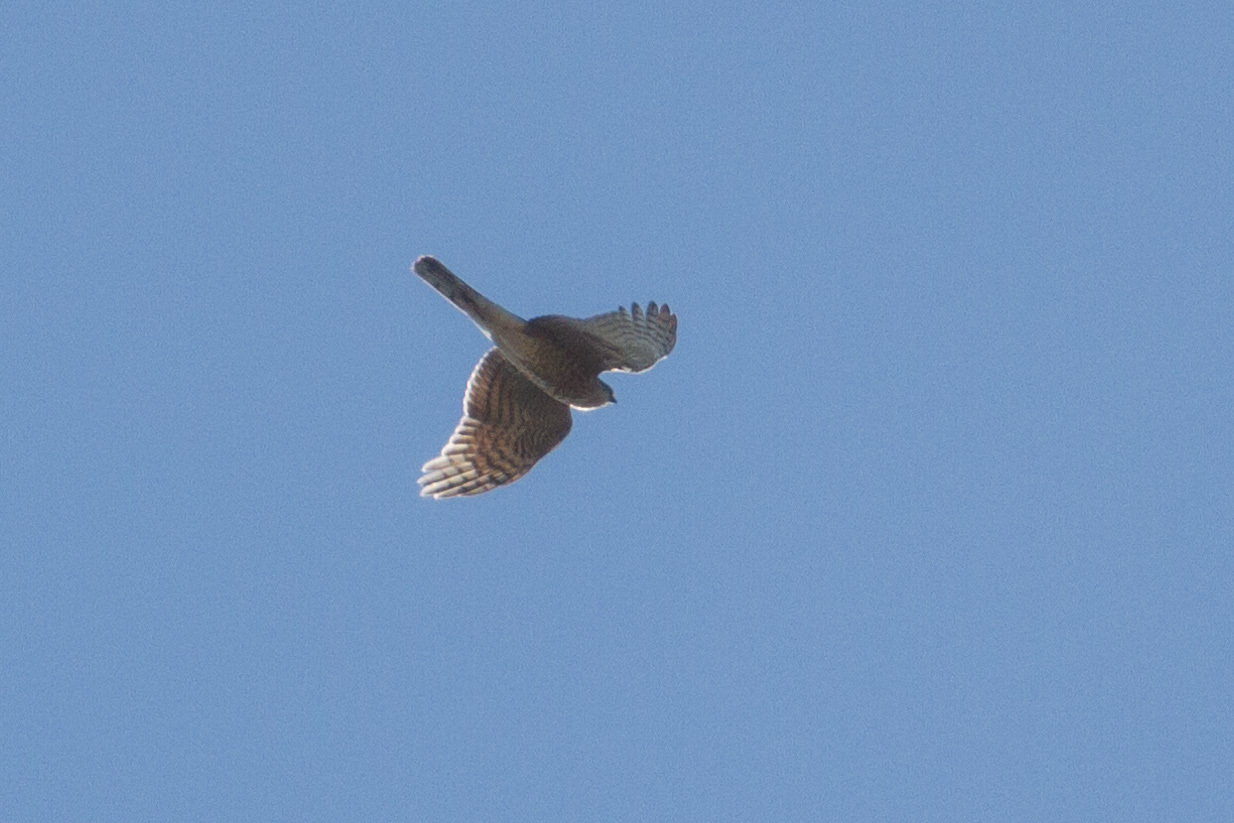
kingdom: Animalia
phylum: Chordata
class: Aves
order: Accipitriformes
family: Accipitridae
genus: Accipiter
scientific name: Accipiter nisus
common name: Eurasian sparrowhawk
